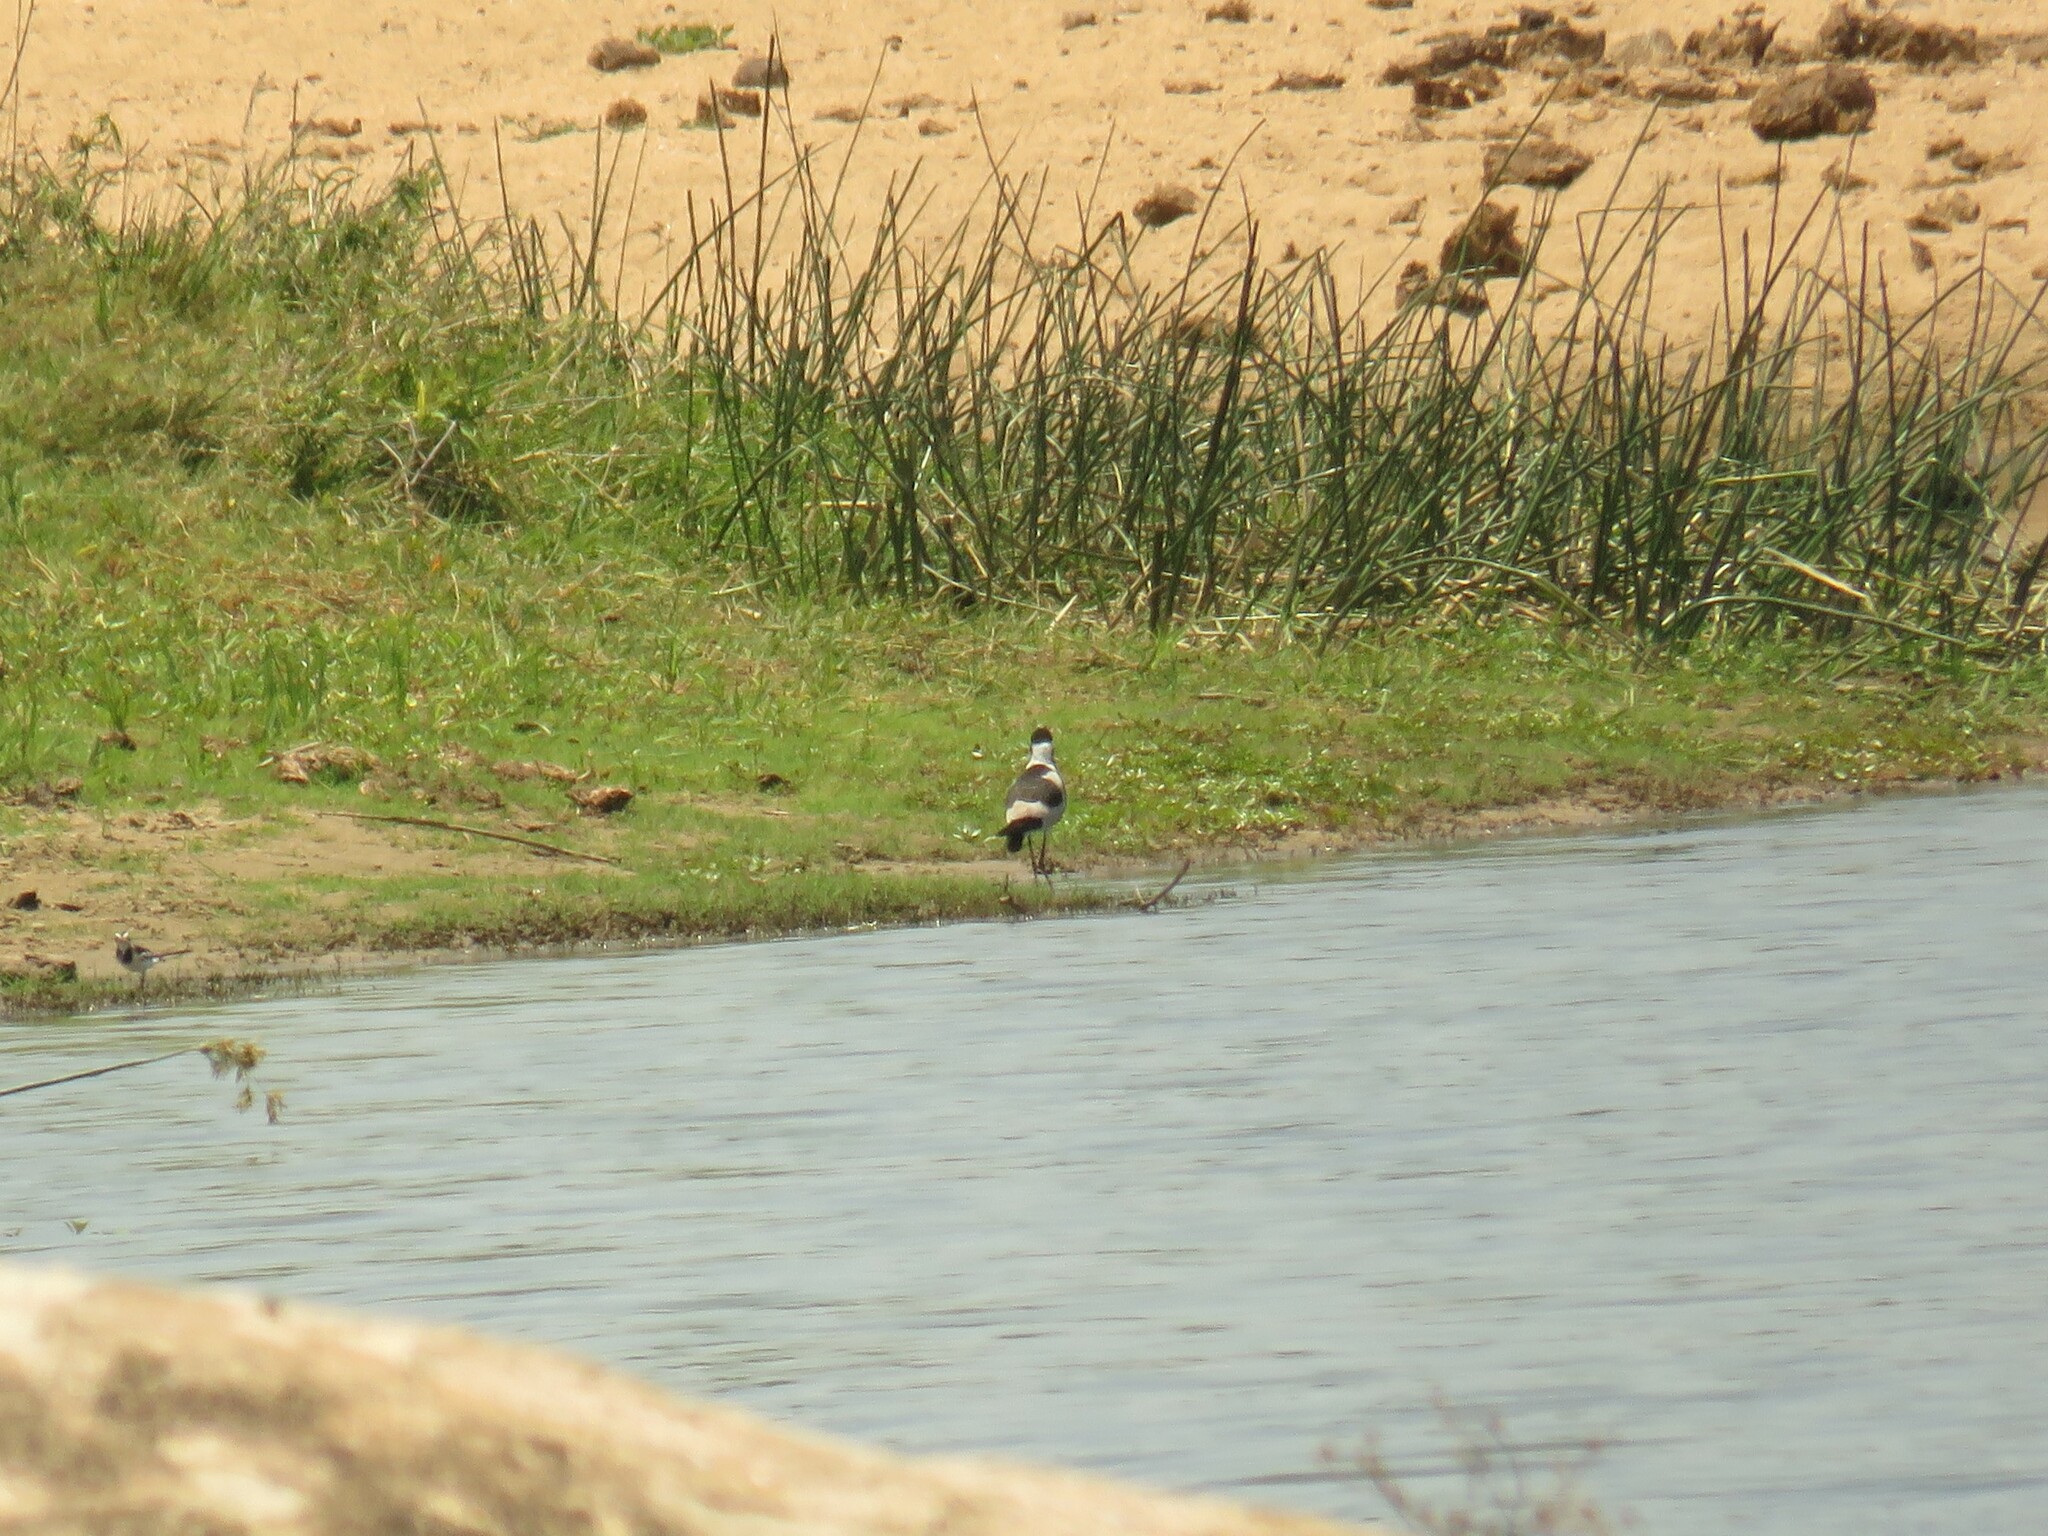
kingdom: Animalia
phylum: Chordata
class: Aves
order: Charadriiformes
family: Charadriidae
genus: Vanellus
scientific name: Vanellus armatus
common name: Blacksmith lapwing
